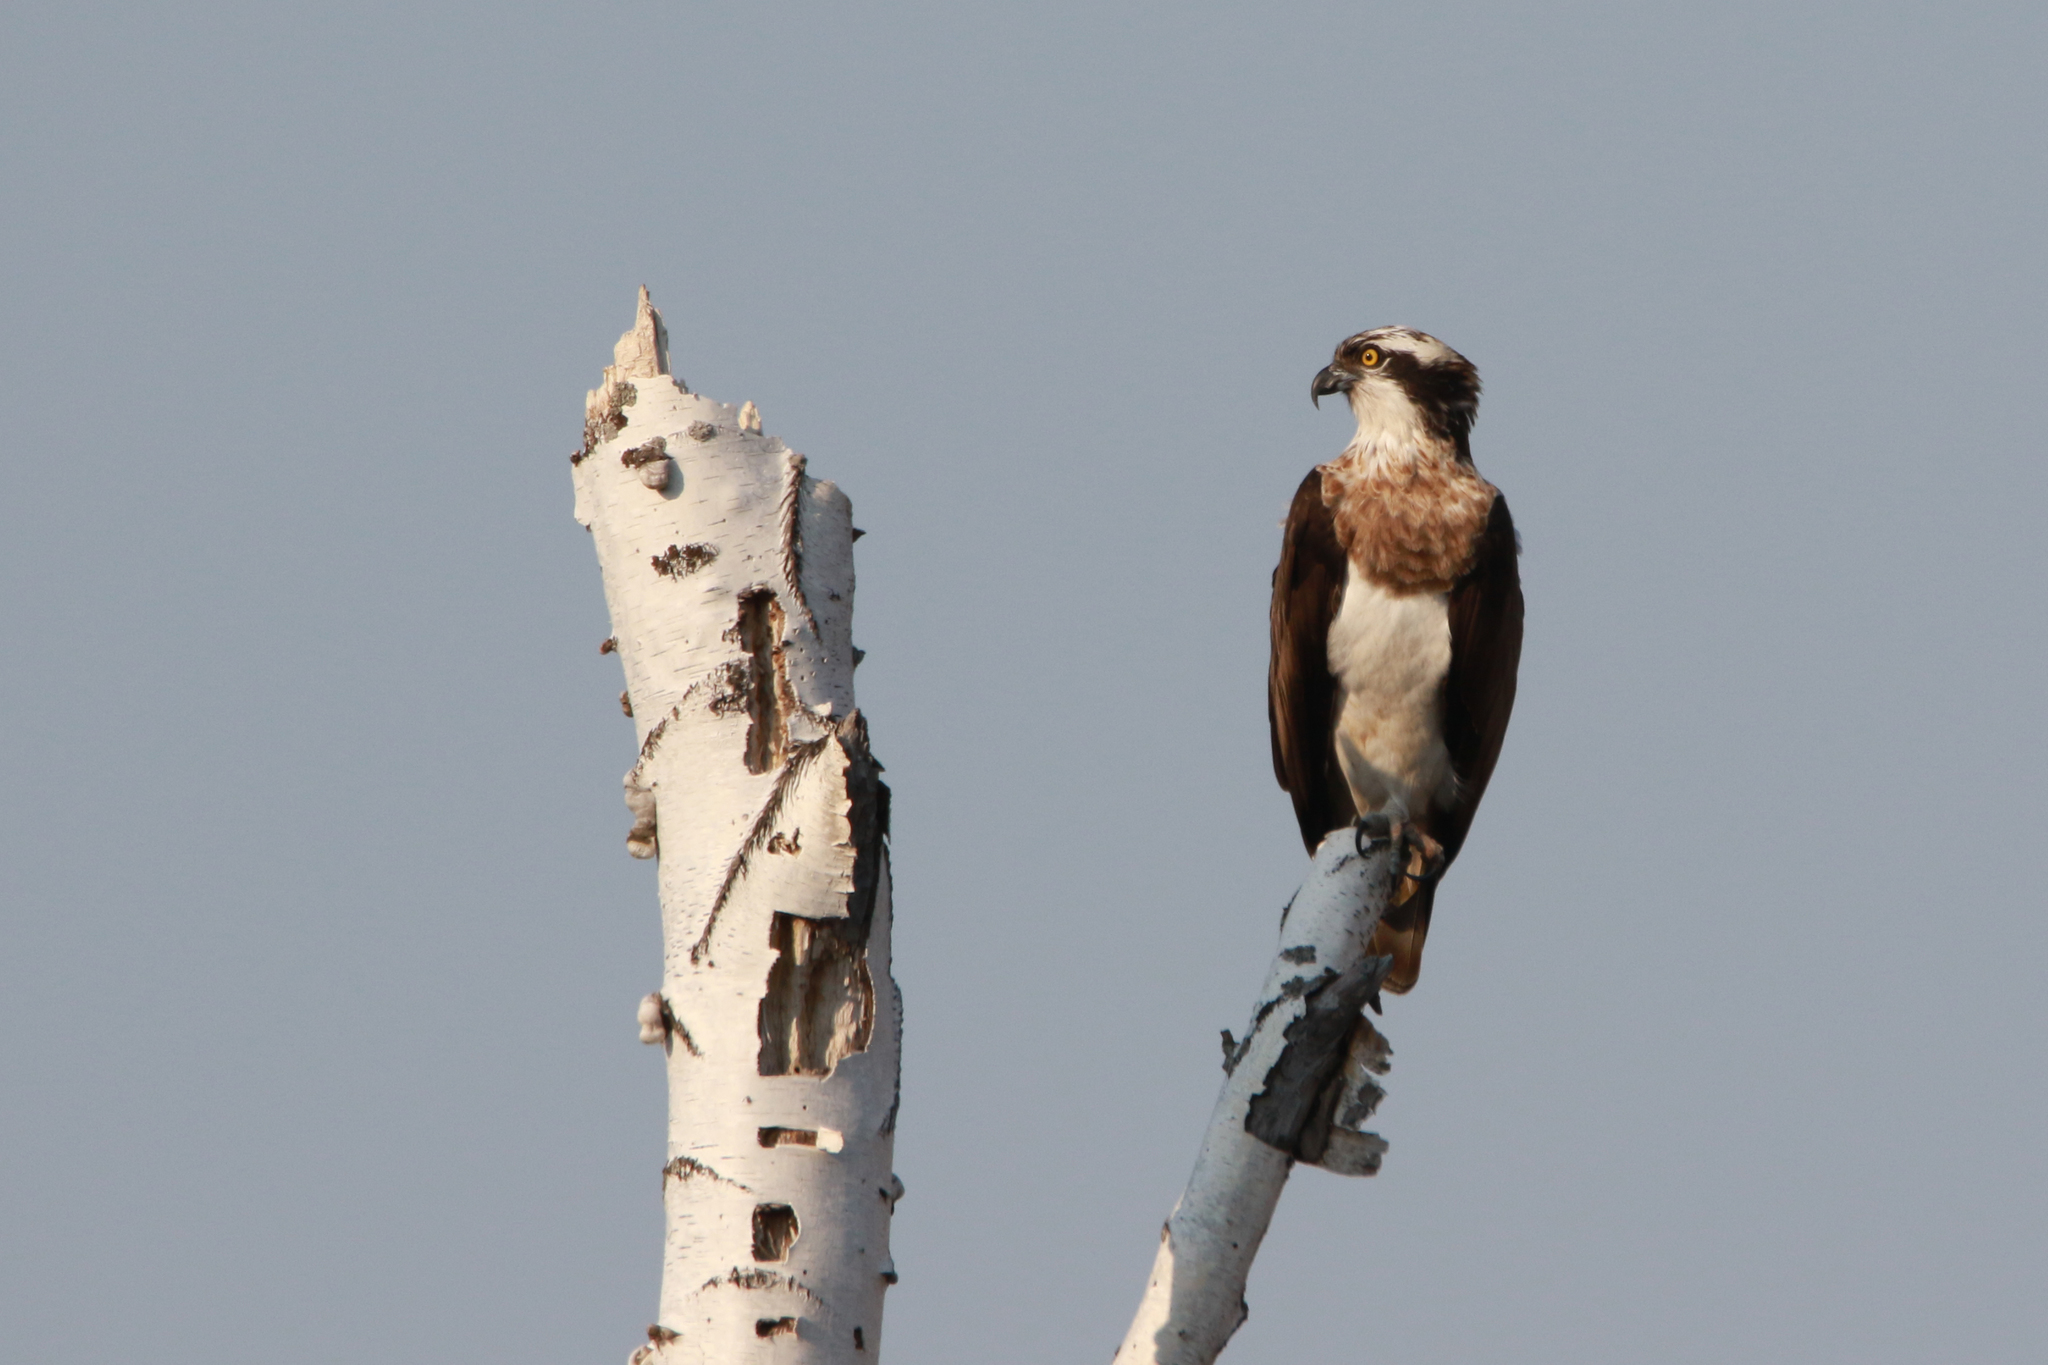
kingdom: Animalia
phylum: Chordata
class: Aves
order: Accipitriformes
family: Pandionidae
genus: Pandion
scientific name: Pandion haliaetus
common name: Osprey
